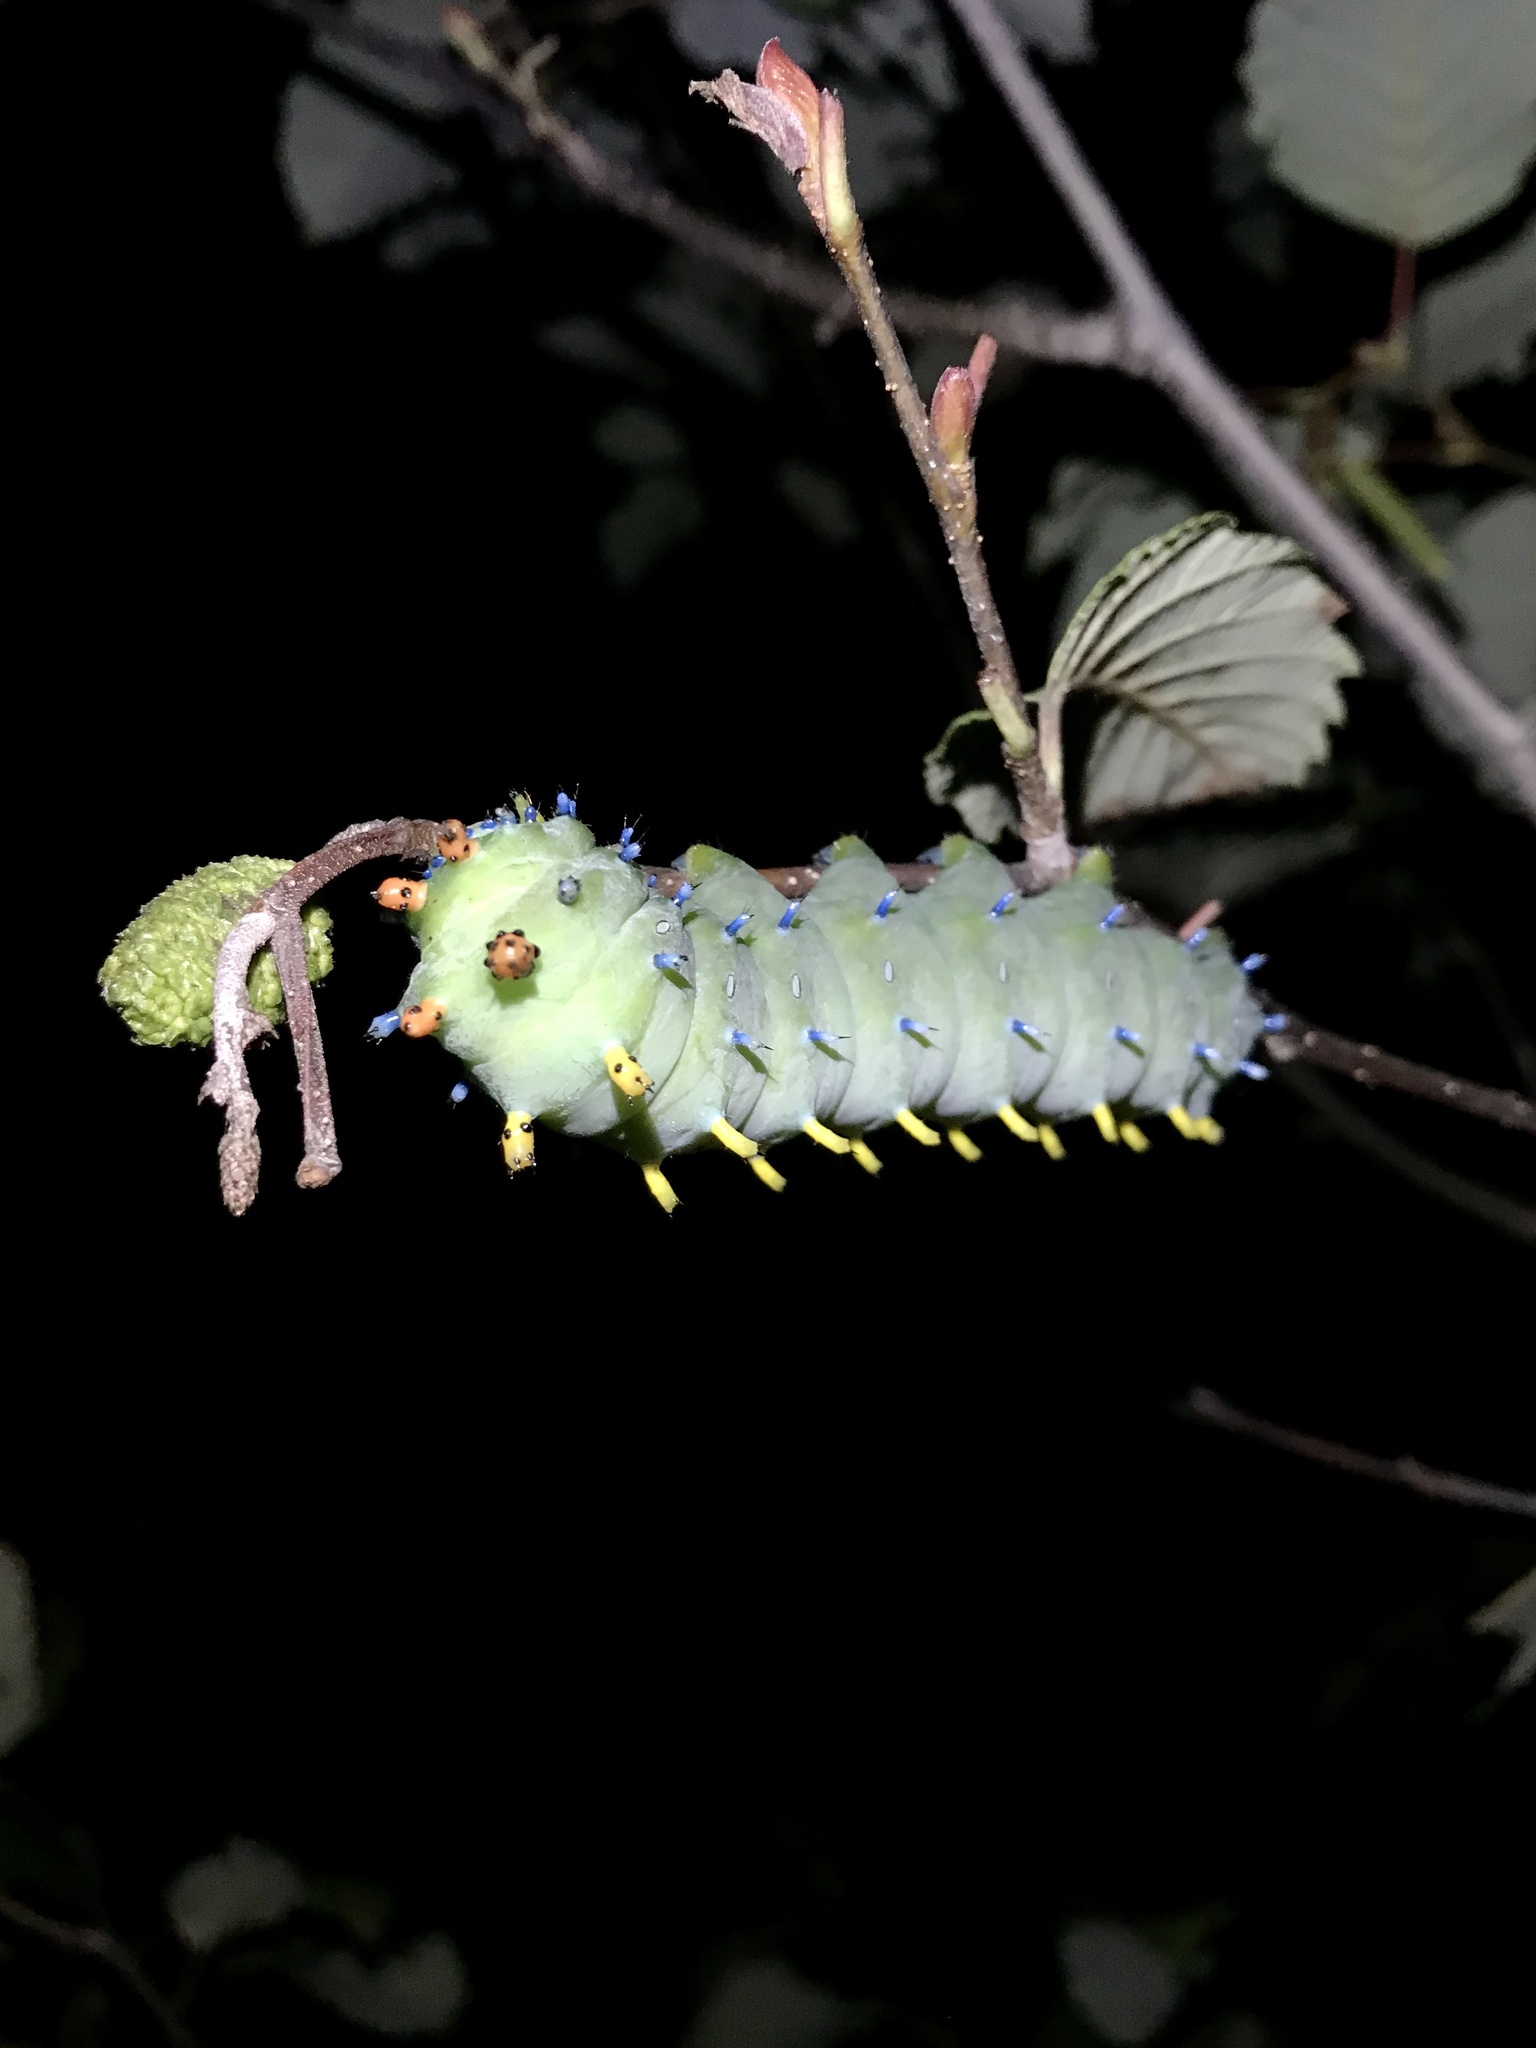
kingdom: Animalia
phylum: Arthropoda
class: Insecta
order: Lepidoptera
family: Saturniidae
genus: Hyalophora
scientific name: Hyalophora cecropia
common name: Cecropia silkmoth
